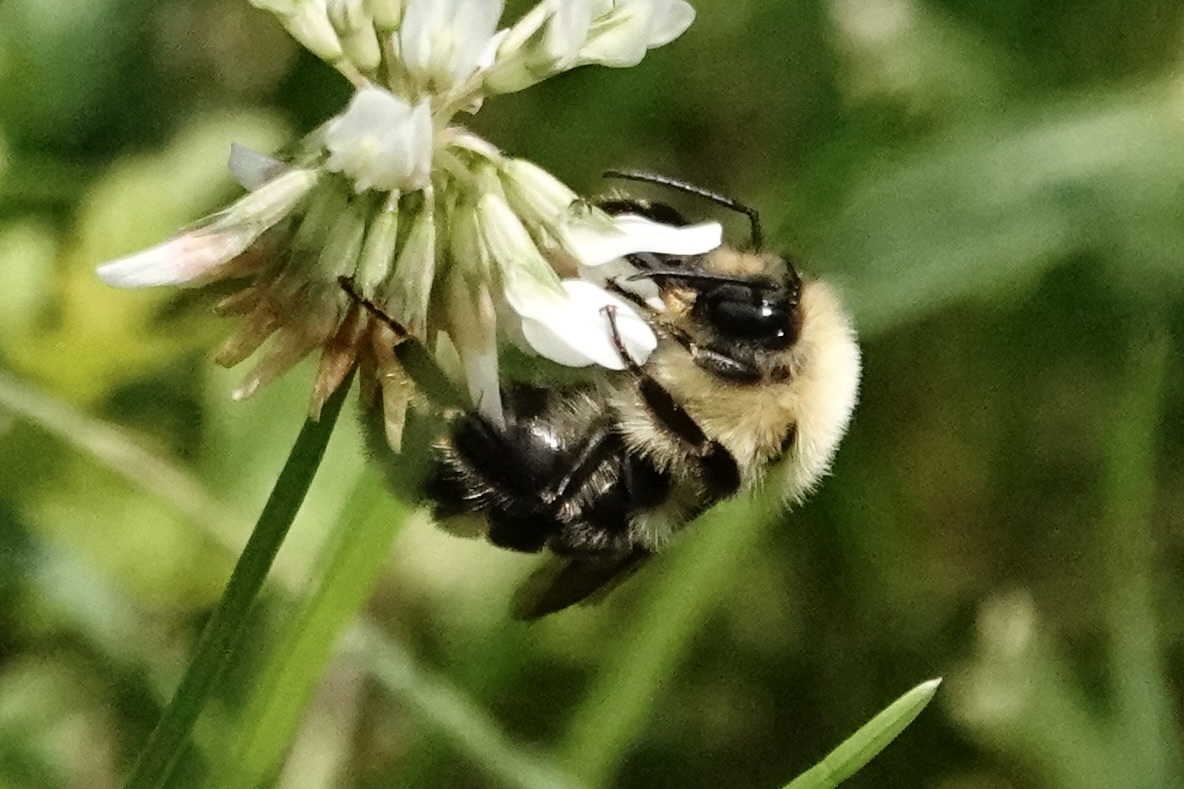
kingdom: Animalia
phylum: Arthropoda
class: Insecta
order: Hymenoptera
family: Apidae
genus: Bombus
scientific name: Bombus bimaculatus
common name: Two-spotted bumble bee
